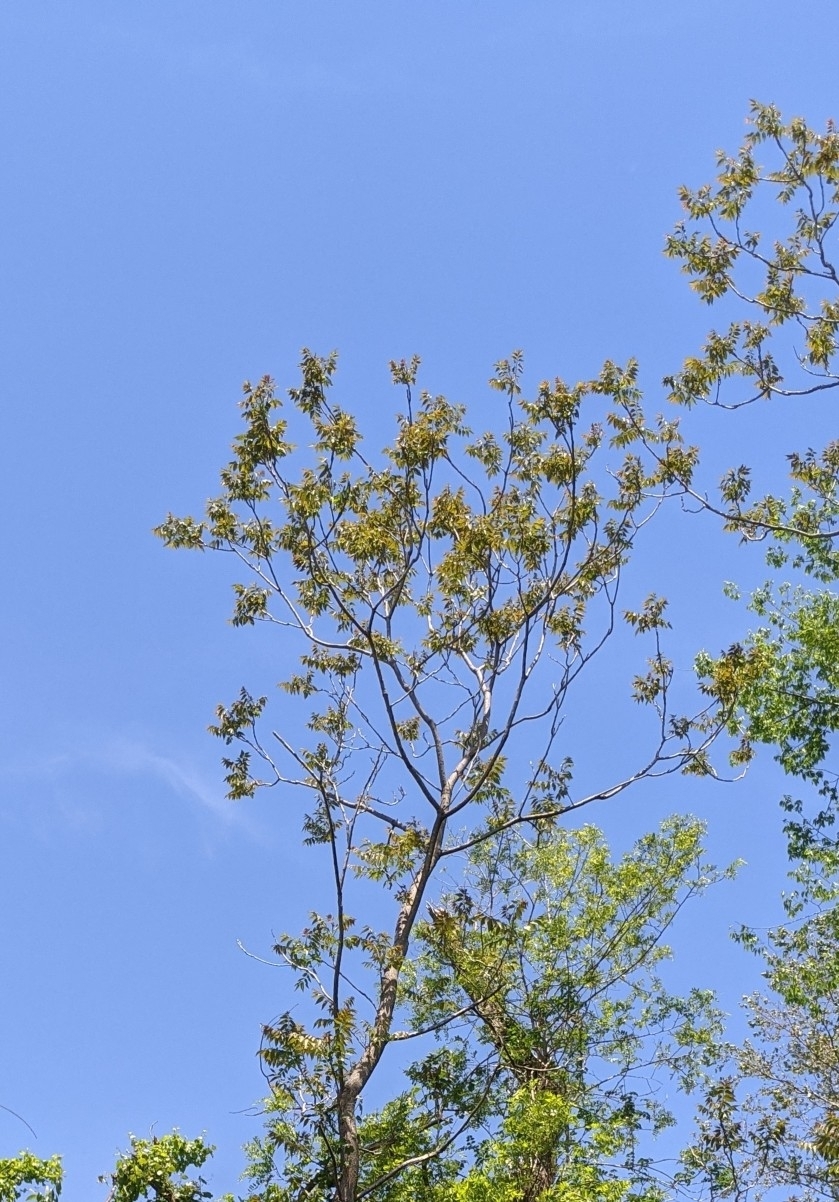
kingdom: Plantae
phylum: Tracheophyta
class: Magnoliopsida
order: Sapindales
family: Simaroubaceae
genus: Ailanthus
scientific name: Ailanthus altissima
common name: Tree-of-heaven
